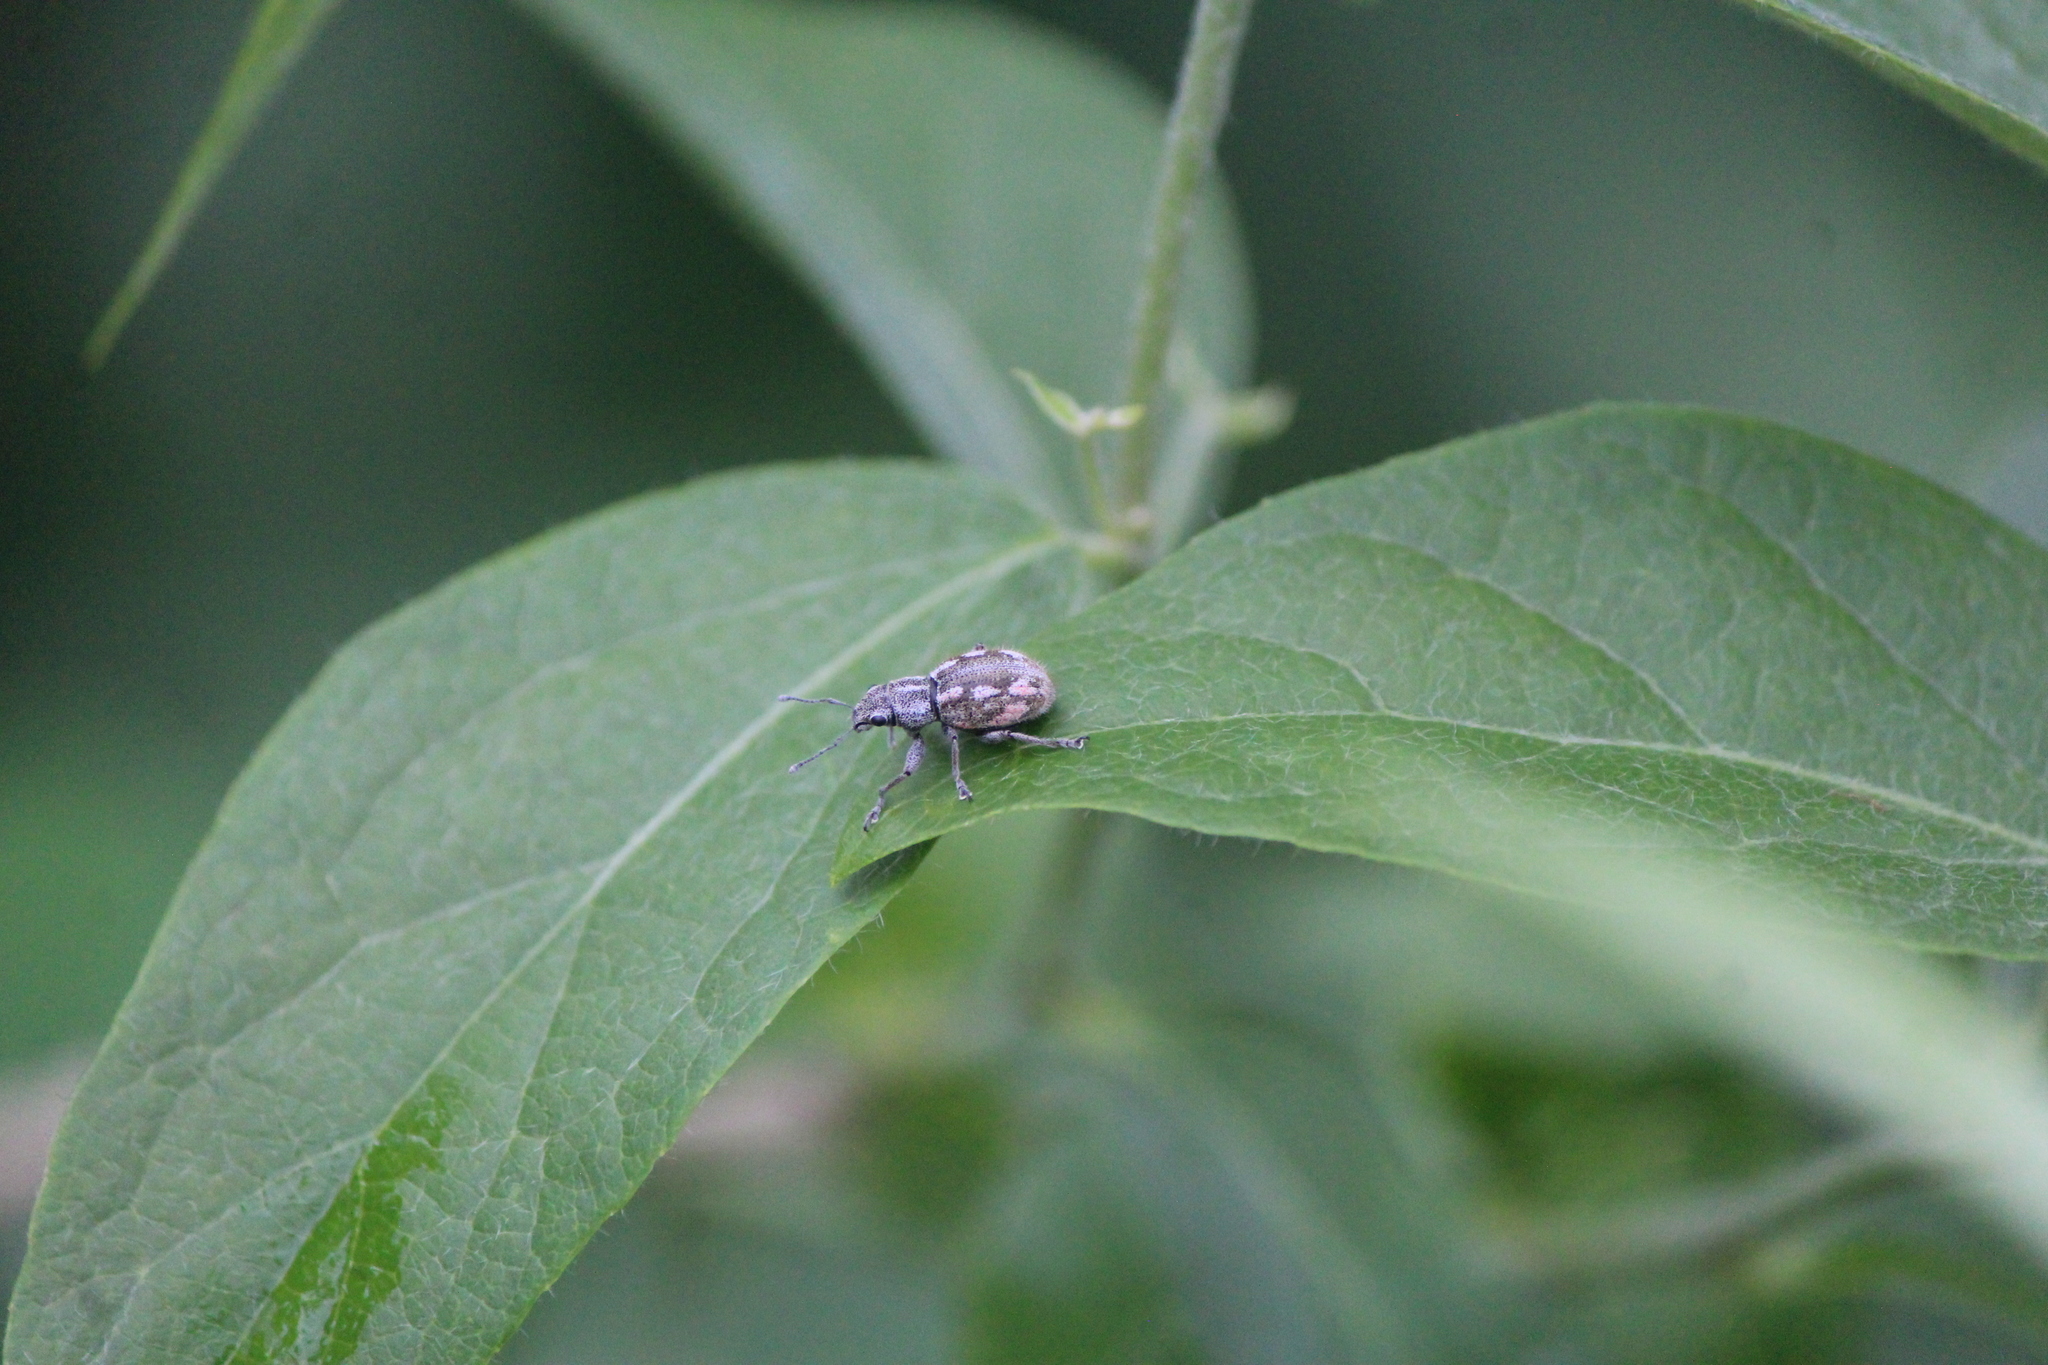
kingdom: Animalia
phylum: Arthropoda
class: Insecta
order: Coleoptera
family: Curculionidae
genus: Pantomorus
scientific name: Pantomorus albosignatus
